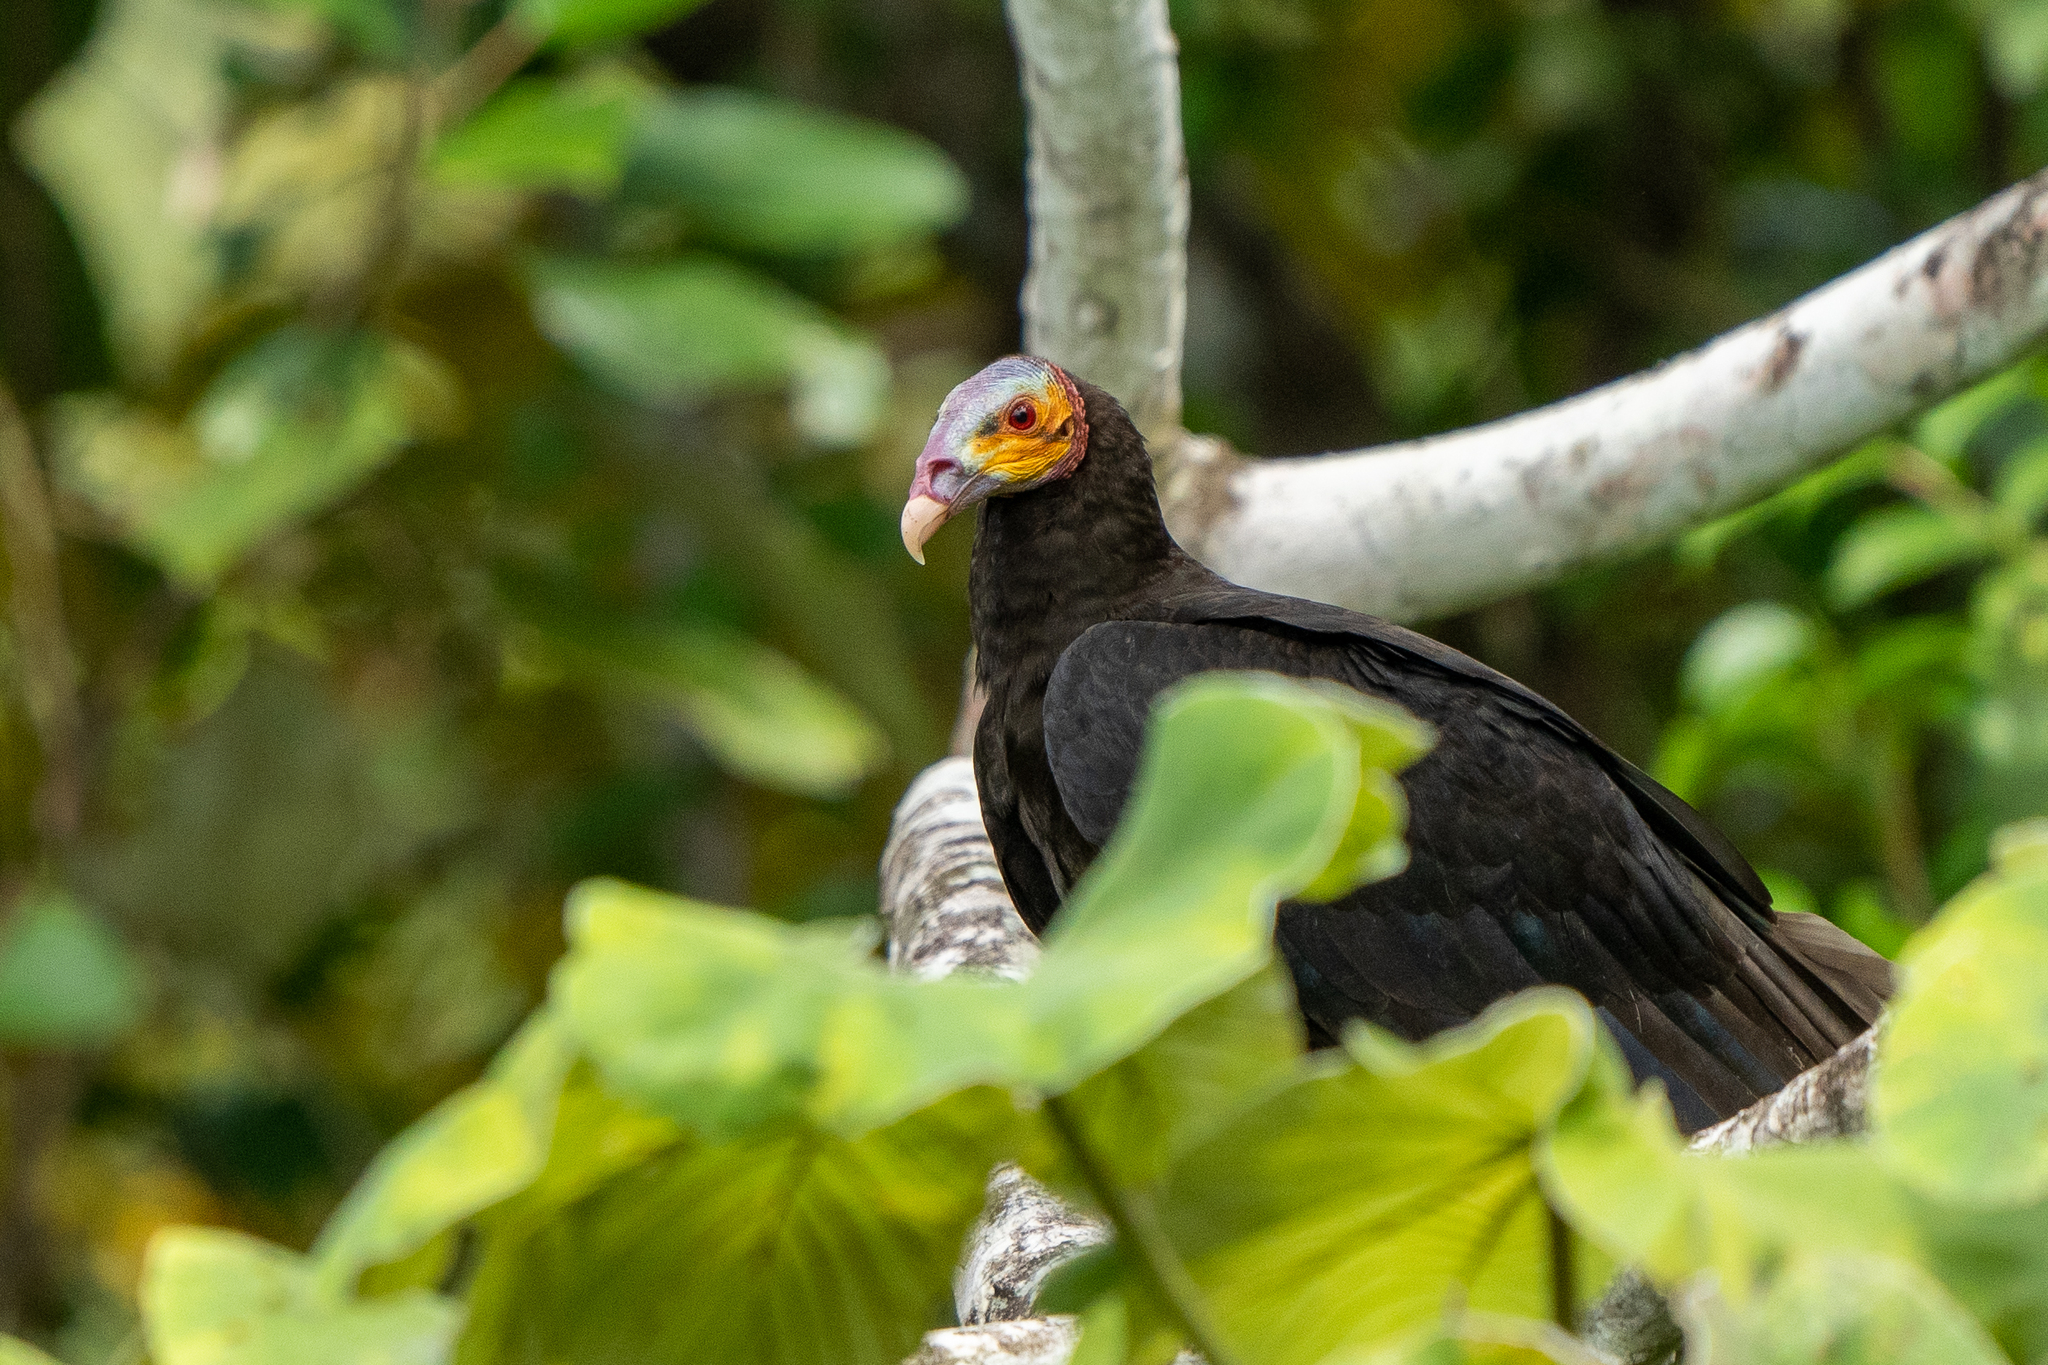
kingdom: Animalia
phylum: Chordata
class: Aves
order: Accipitriformes
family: Cathartidae
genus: Cathartes
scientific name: Cathartes burrovianus
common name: Lesser yellow-headed vulture
